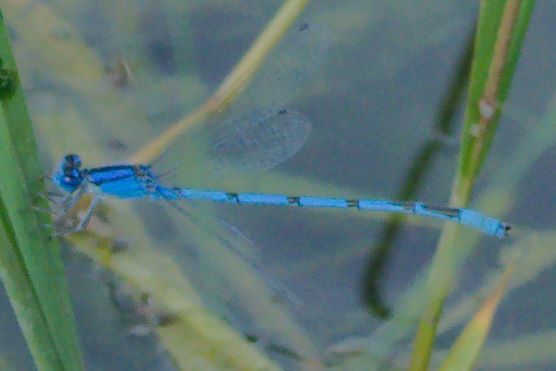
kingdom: Animalia
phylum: Arthropoda
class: Insecta
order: Odonata
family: Coenagrionidae
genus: Enallagma
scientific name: Enallagma civile
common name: Damselfly
